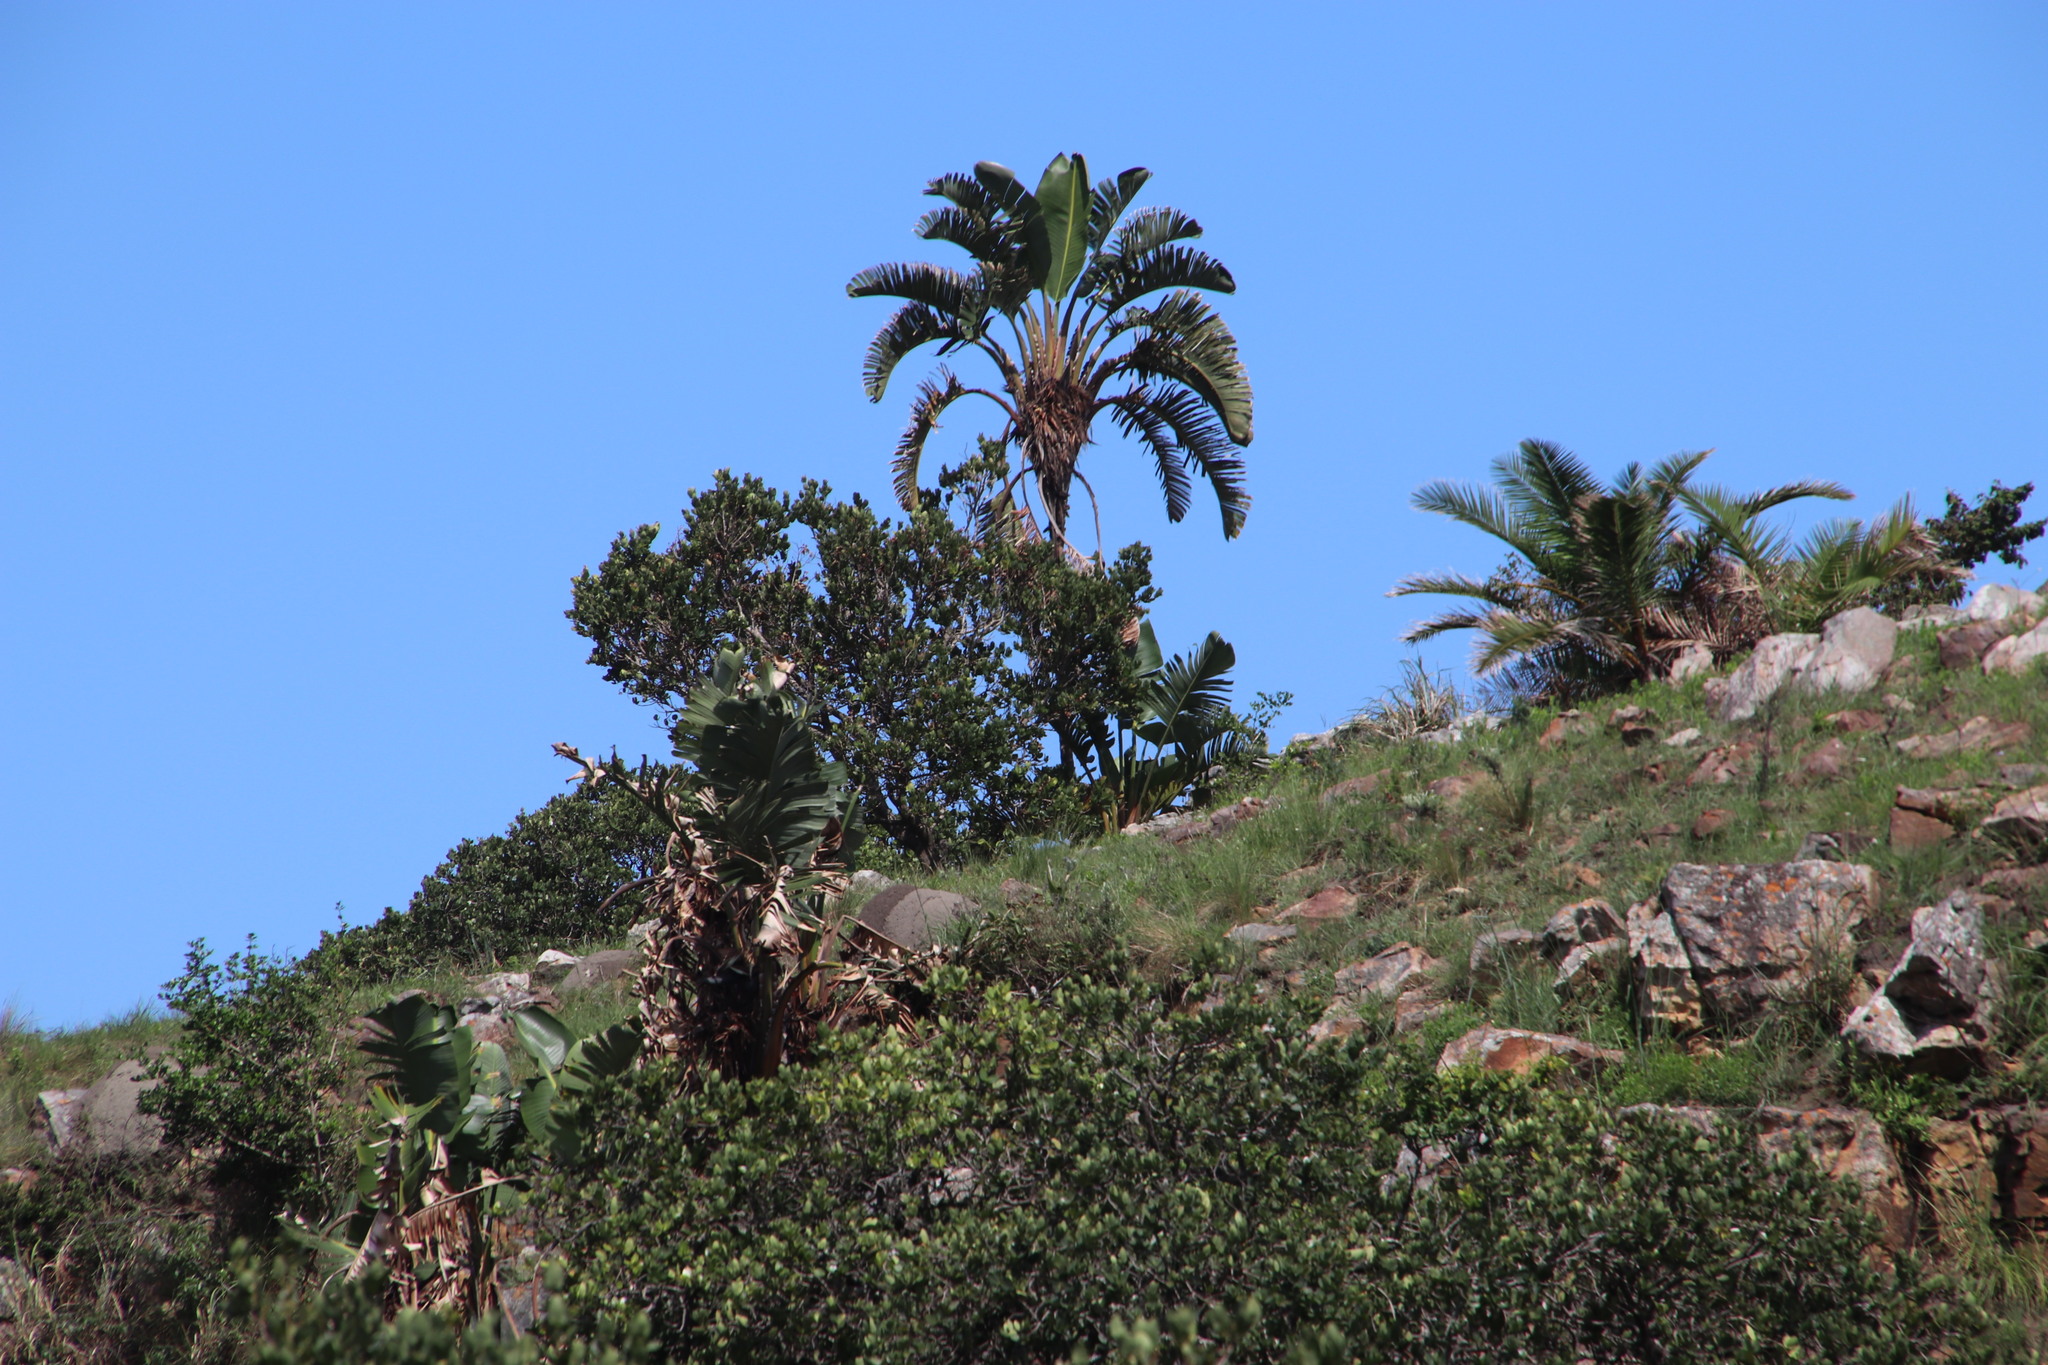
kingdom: Plantae
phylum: Tracheophyta
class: Liliopsida
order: Zingiberales
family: Strelitziaceae
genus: Strelitzia
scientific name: Strelitzia nicolai
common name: Bird-of-paradise tree
